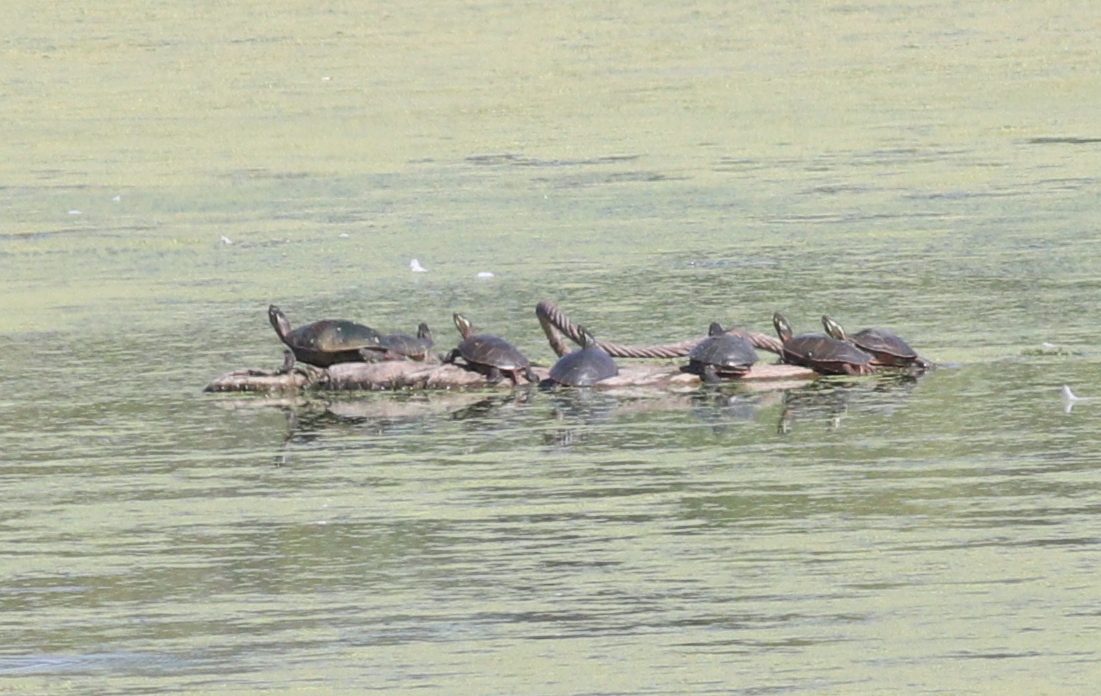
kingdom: Animalia
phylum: Chordata
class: Testudines
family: Emydidae
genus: Chrysemys
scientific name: Chrysemys picta
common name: Painted turtle
